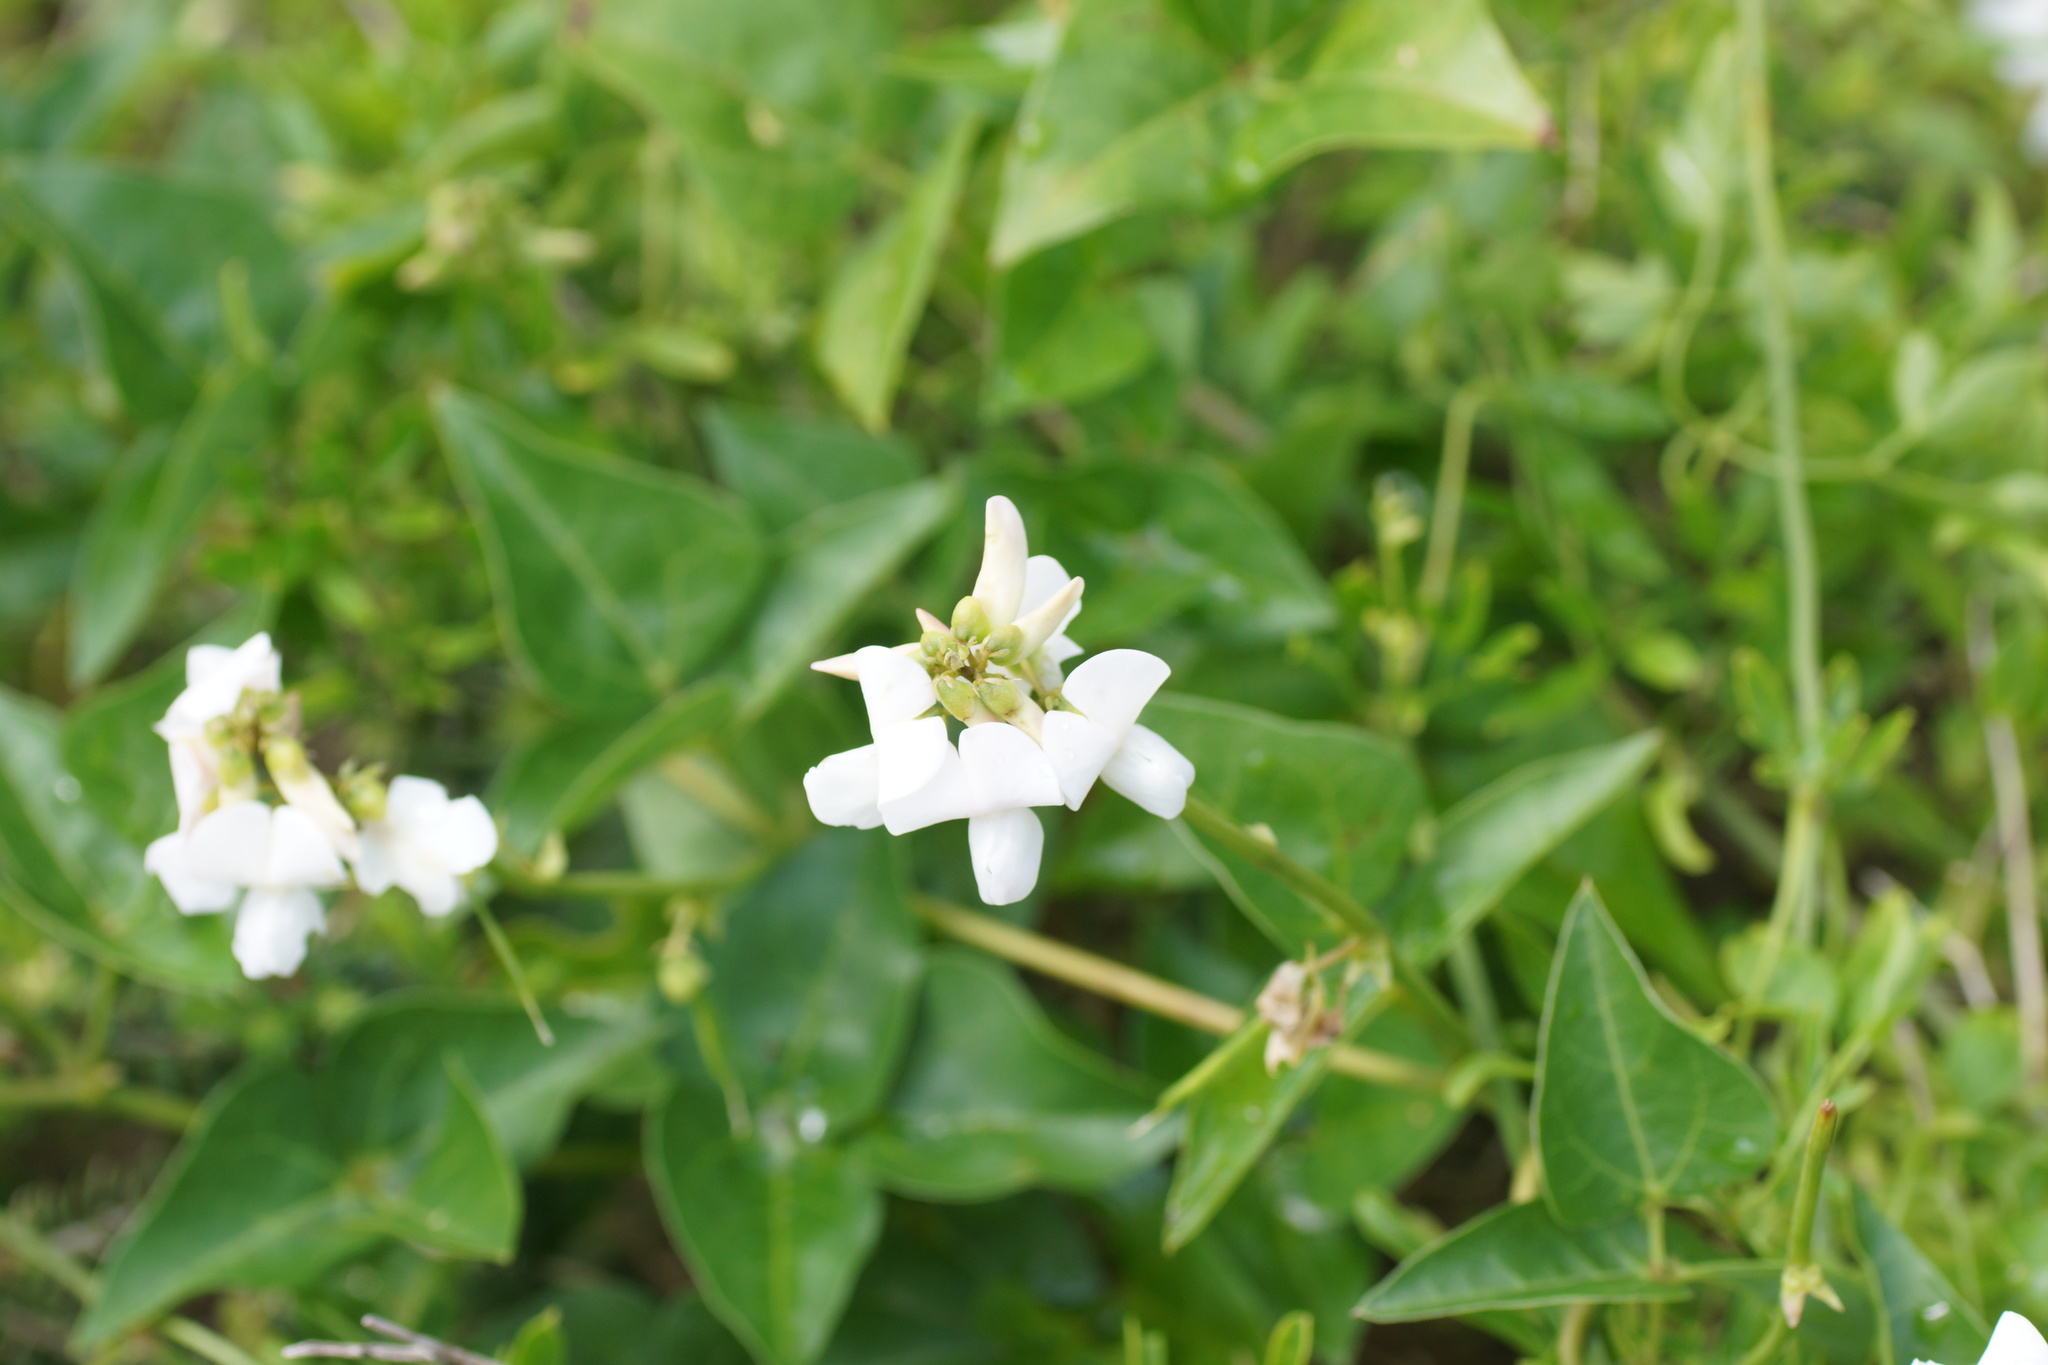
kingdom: Plantae
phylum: Tracheophyta
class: Magnoliopsida
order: Fabales
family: Fabaceae
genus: Dipogon
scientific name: Dipogon lignosus
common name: Okie bean
